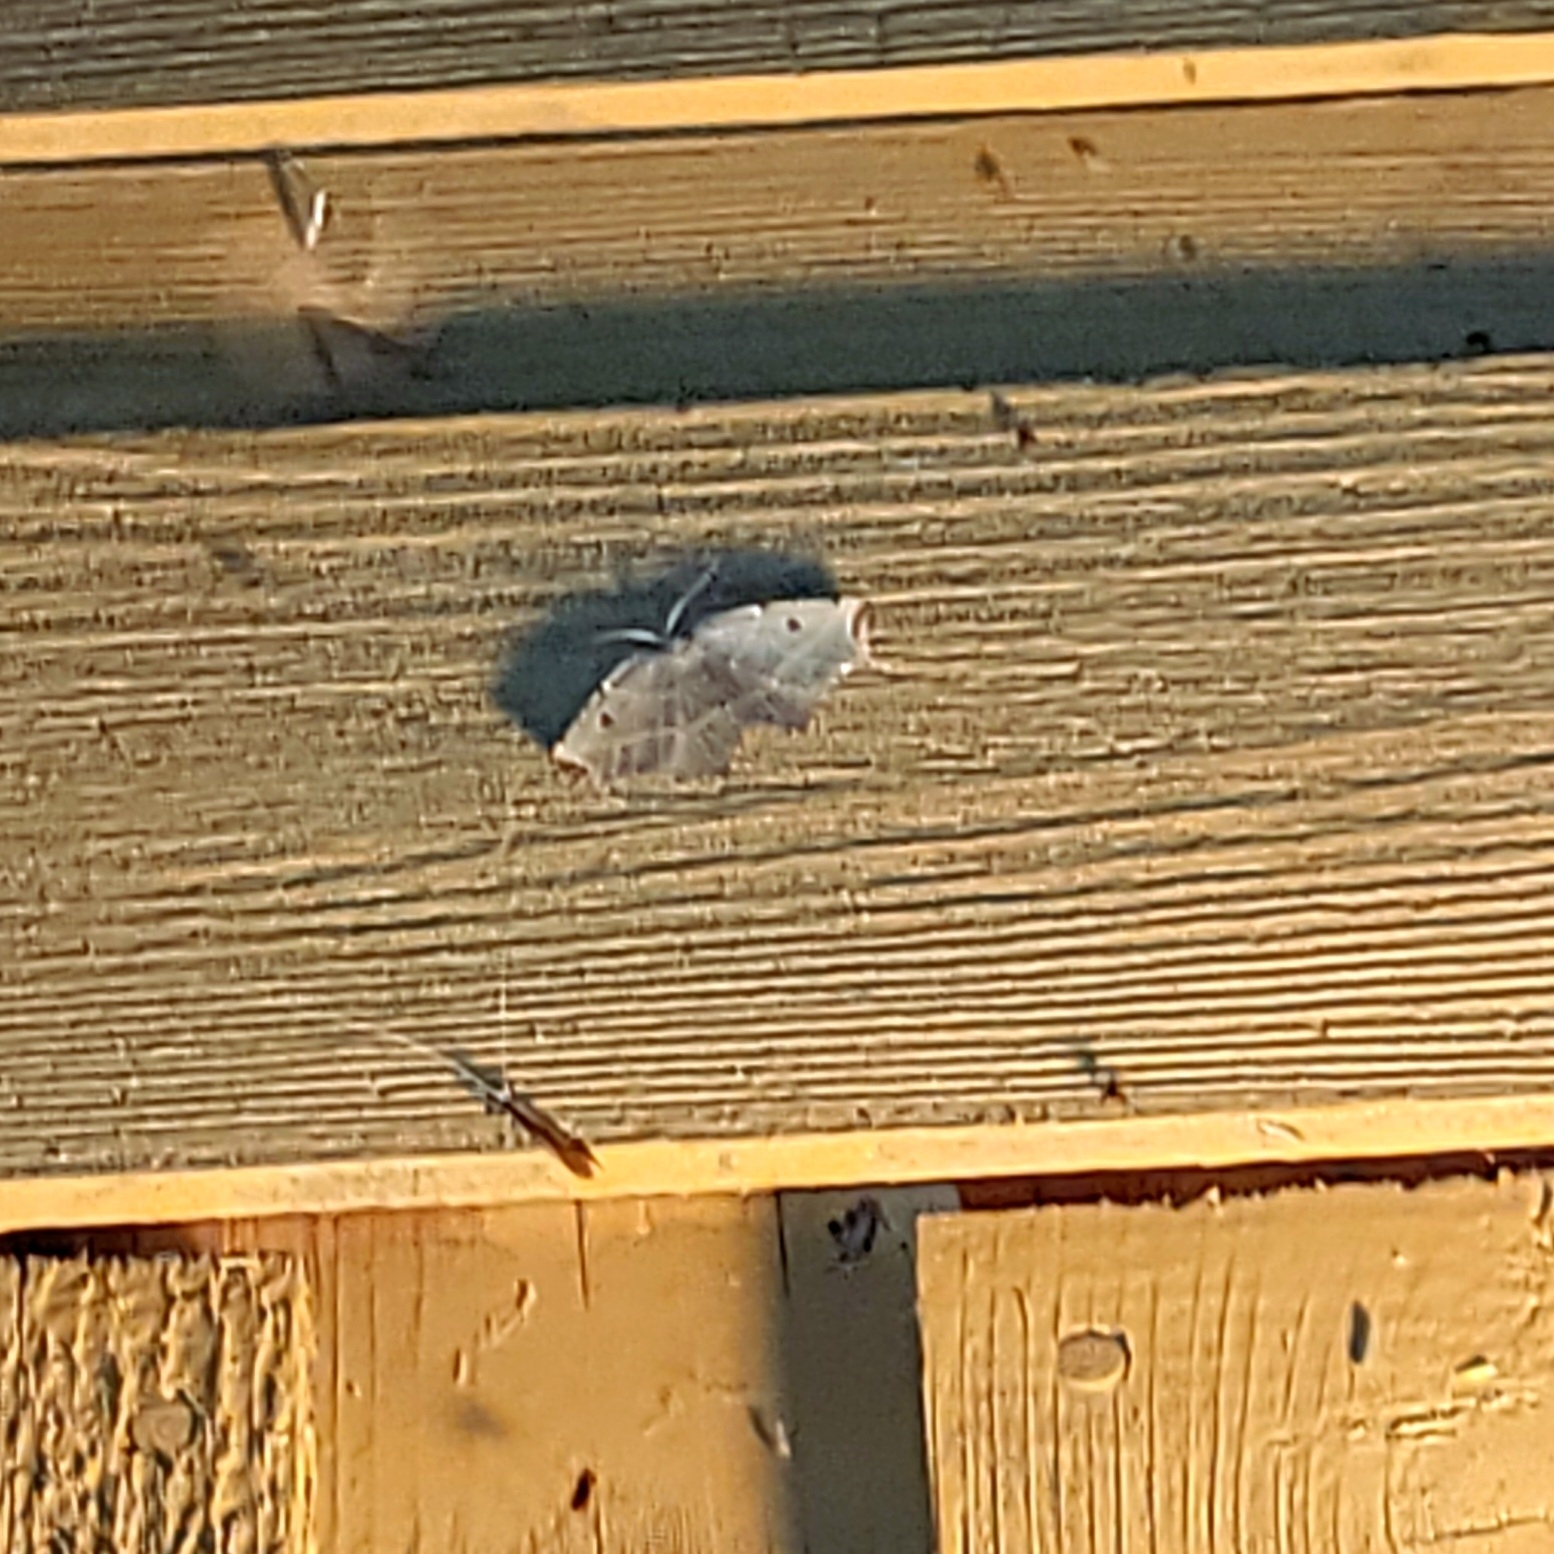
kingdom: Animalia
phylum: Arthropoda
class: Insecta
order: Lepidoptera
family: Geometridae
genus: Metanema
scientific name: Metanema inatomaria
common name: Pale metanema
